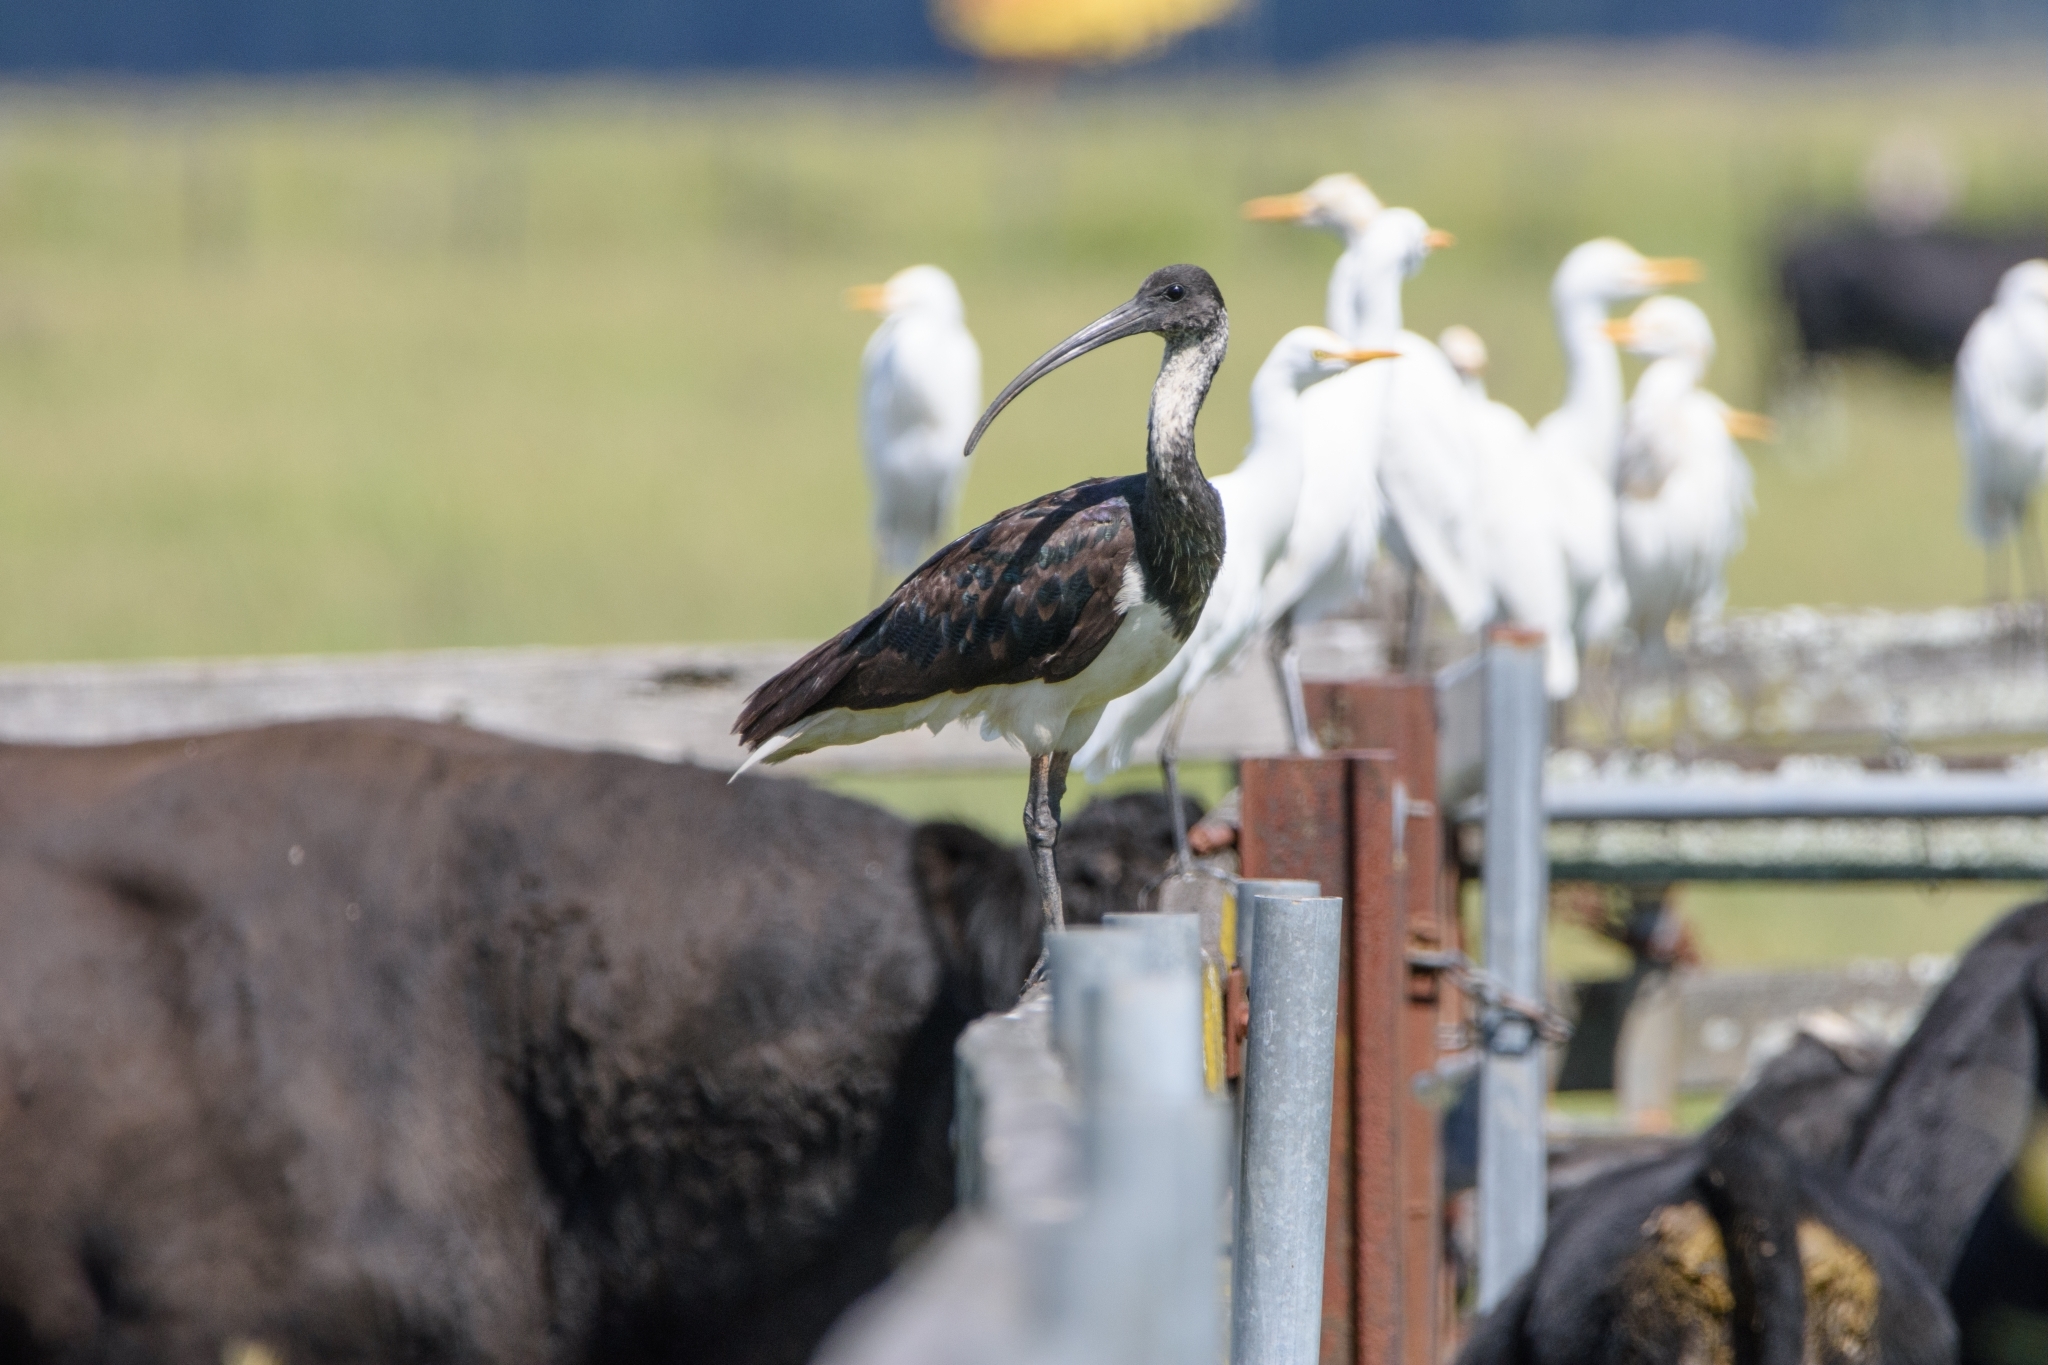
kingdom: Animalia
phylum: Chordata
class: Aves
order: Pelecaniformes
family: Threskiornithidae
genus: Threskiornis
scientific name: Threskiornis spinicollis
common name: Straw-necked ibis
